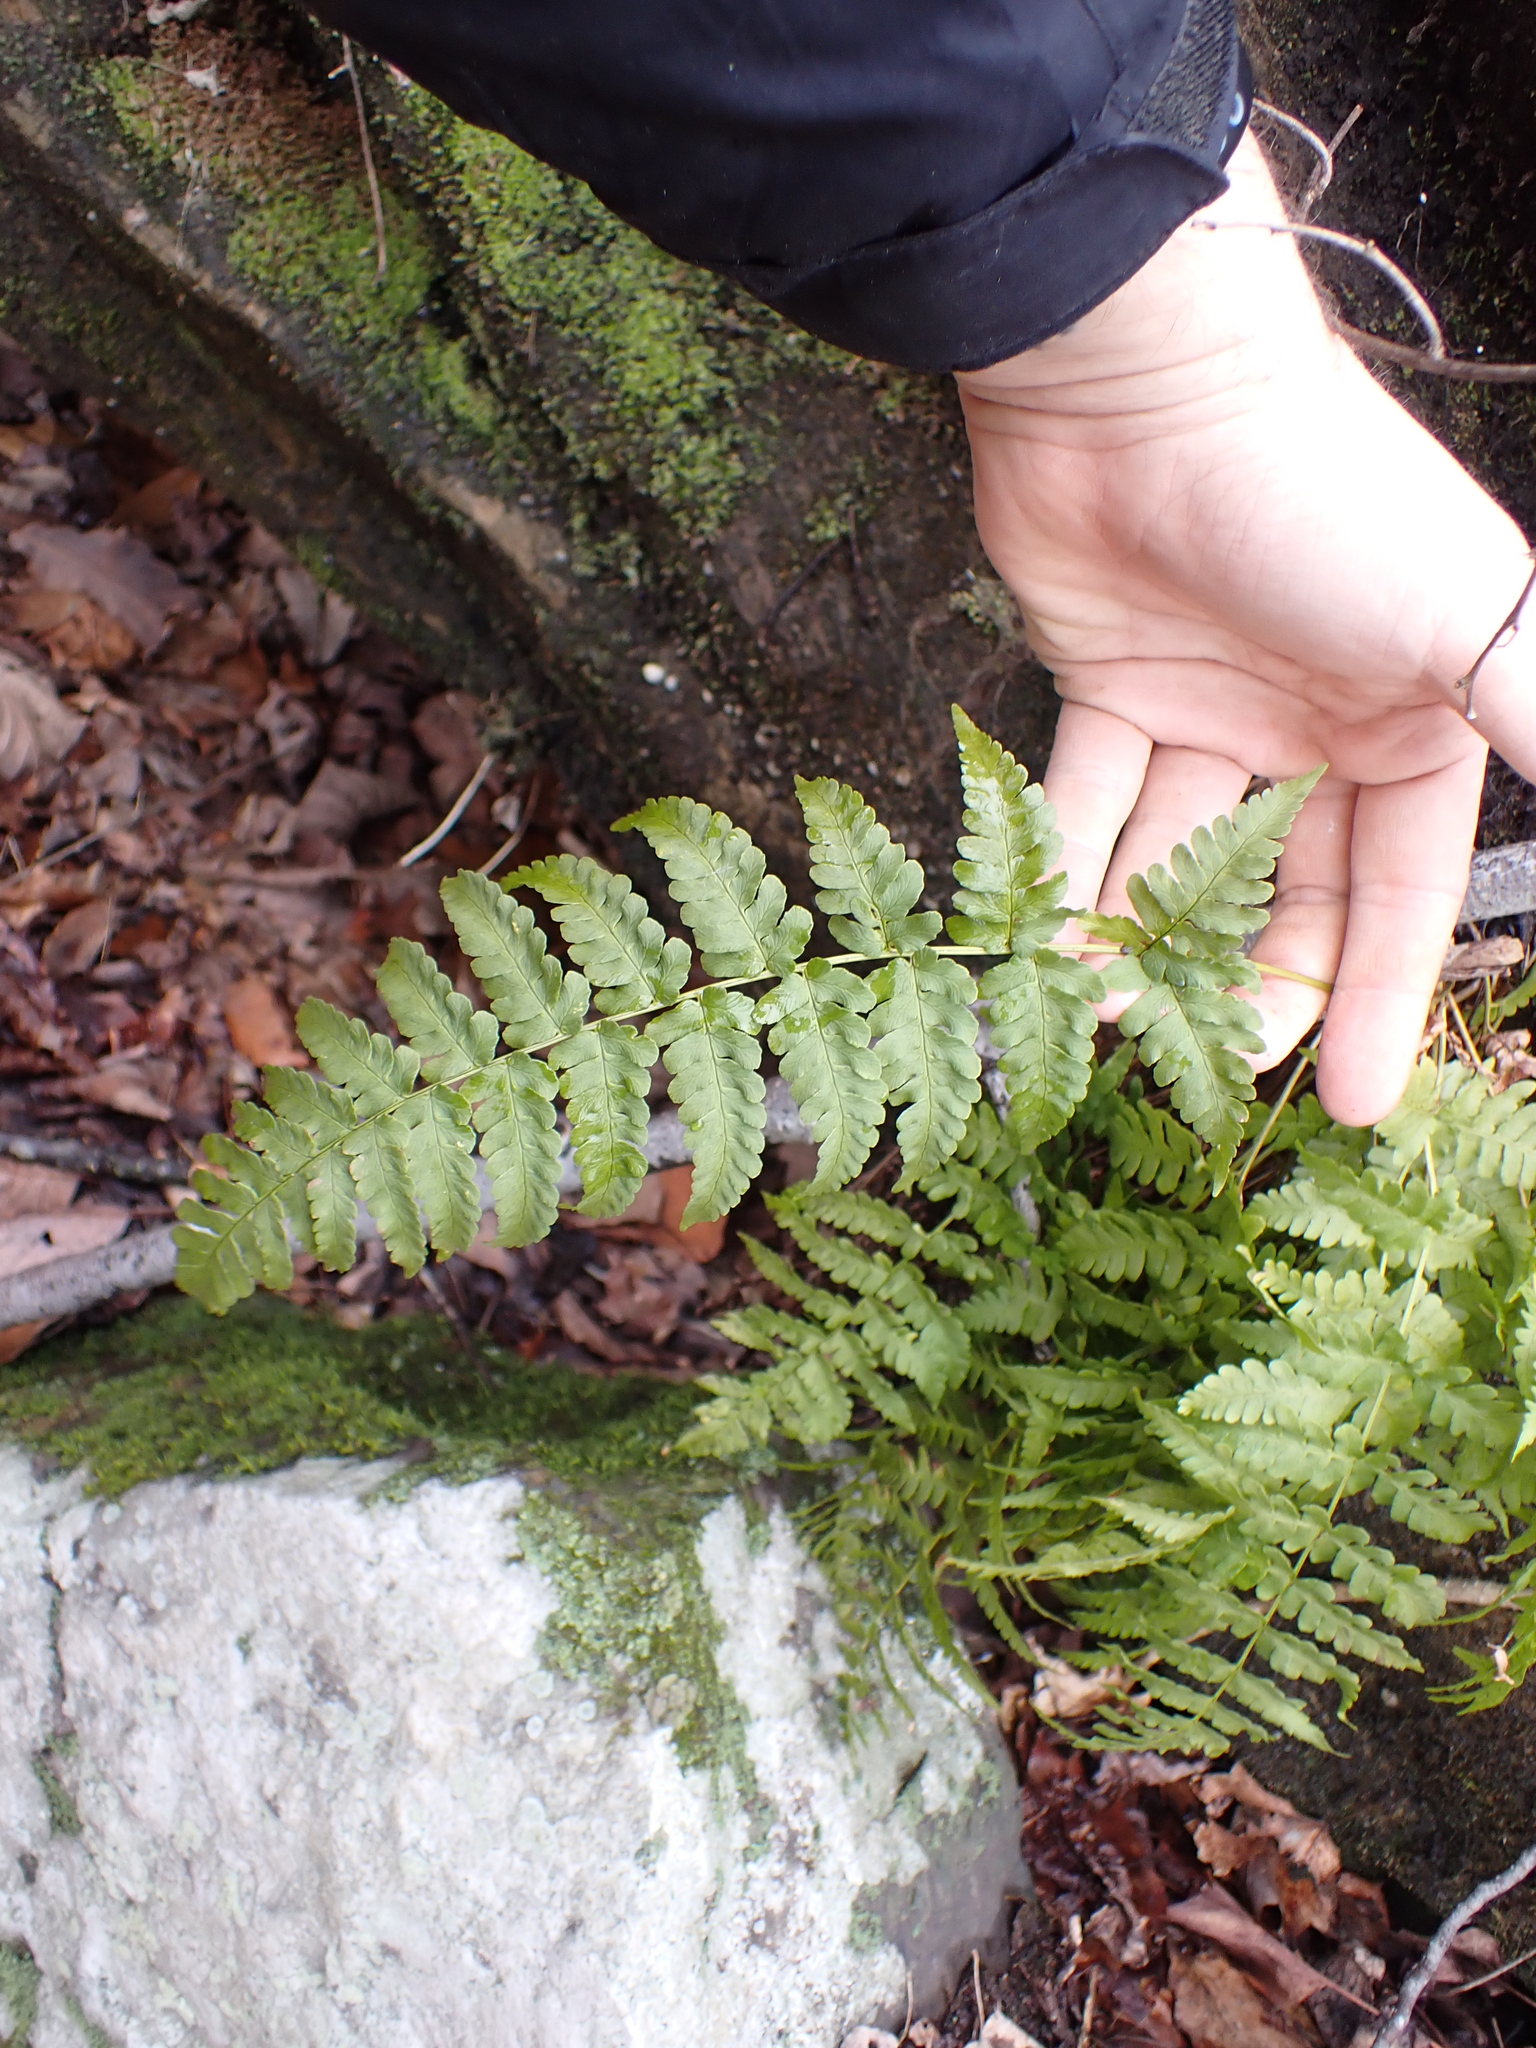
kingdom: Plantae
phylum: Tracheophyta
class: Polypodiopsida
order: Polypodiales
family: Dryopteridaceae
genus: Dryopteris
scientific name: Dryopteris marginalis
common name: Marginal wood fern
